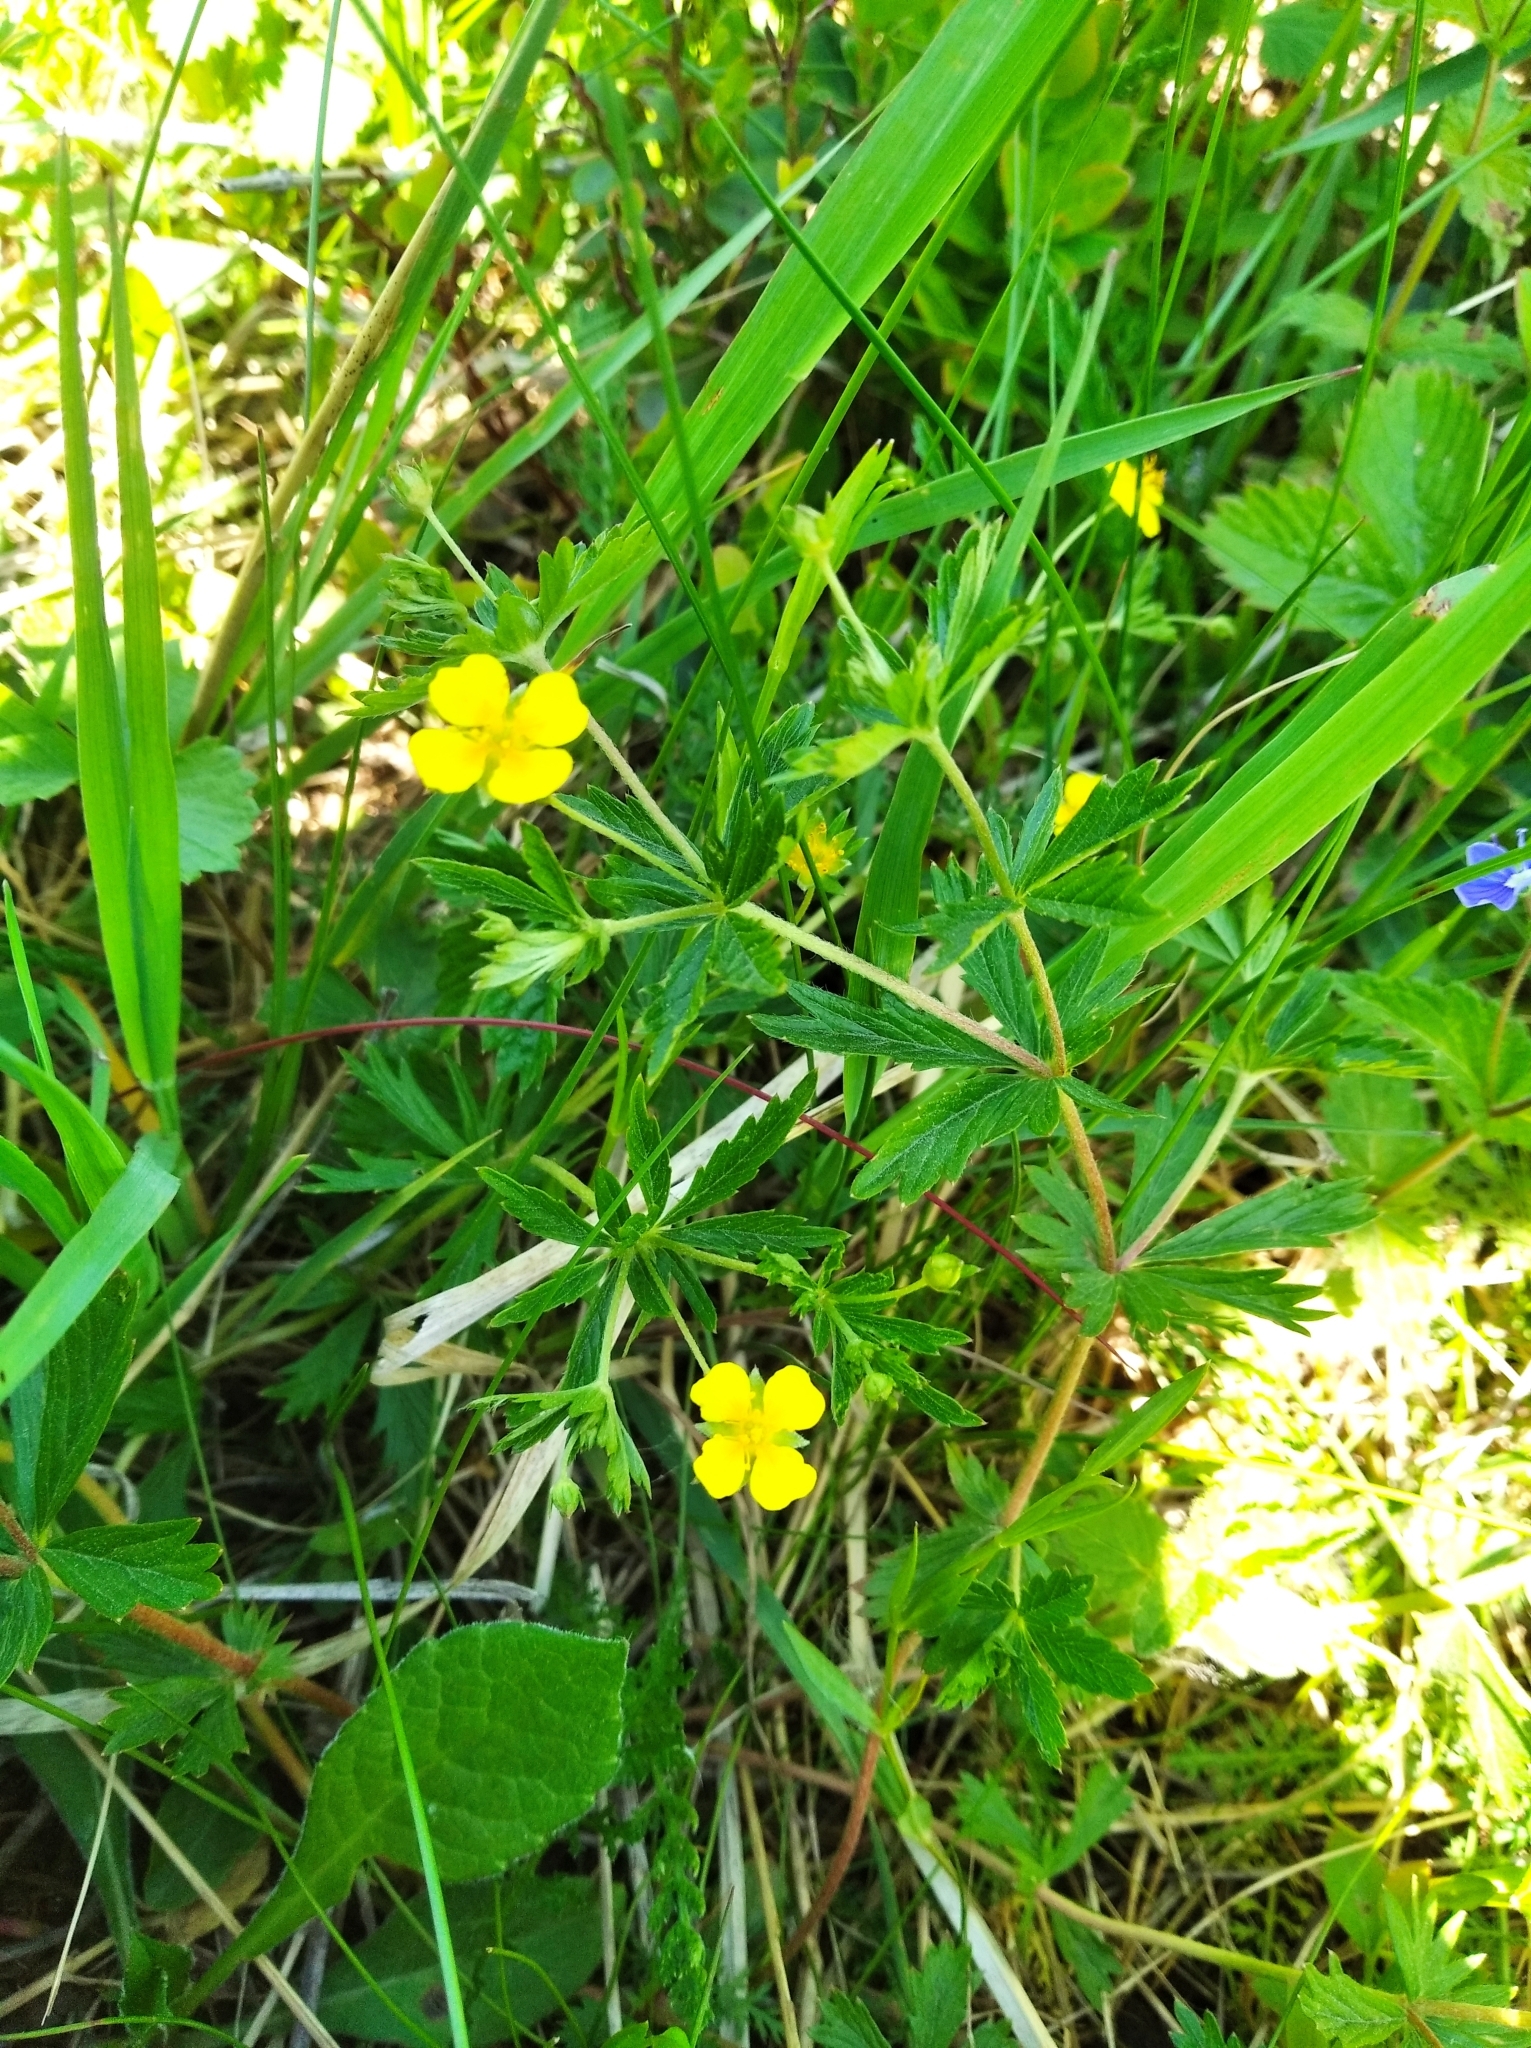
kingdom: Plantae
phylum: Tracheophyta
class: Magnoliopsida
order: Rosales
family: Rosaceae
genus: Potentilla
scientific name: Potentilla erecta
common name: Tormentil
